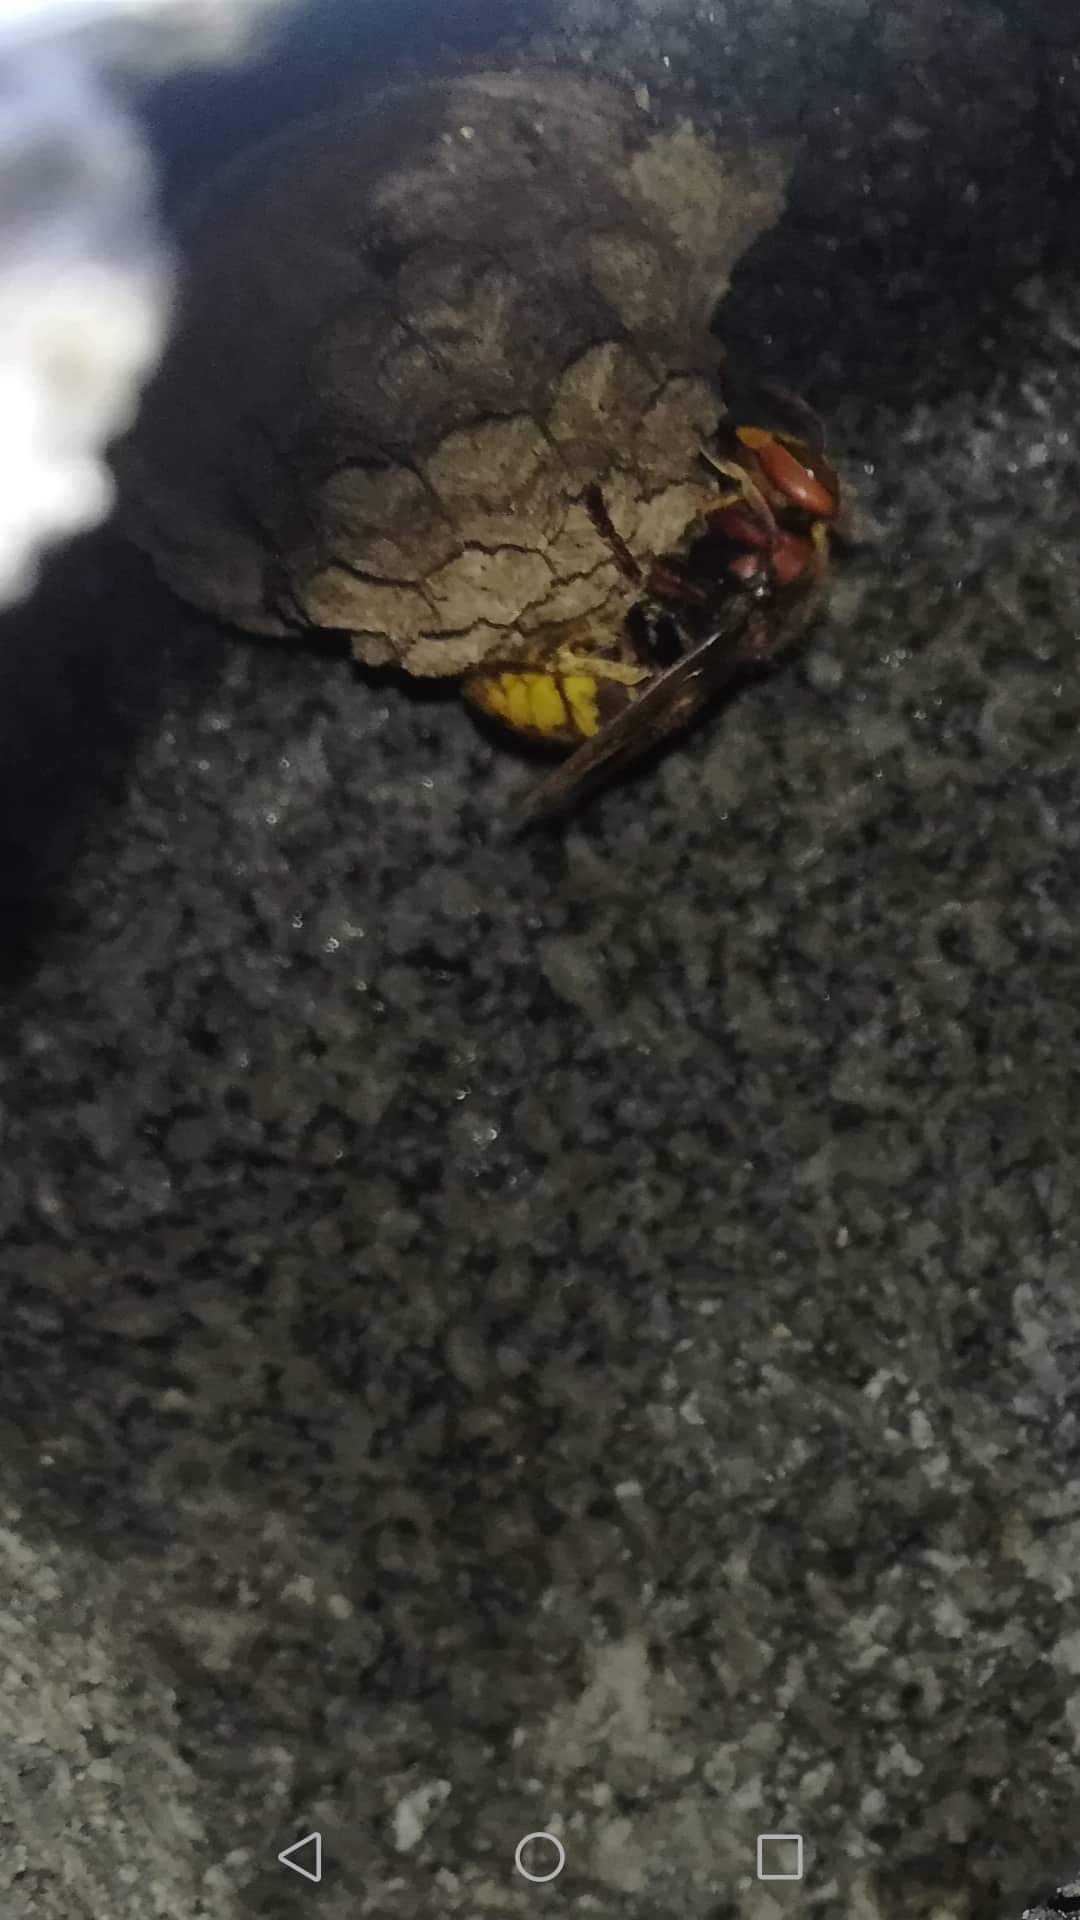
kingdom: Animalia
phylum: Arthropoda
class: Insecta
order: Hymenoptera
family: Vespidae
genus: Vespa
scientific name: Vespa crabro
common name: Hornet
